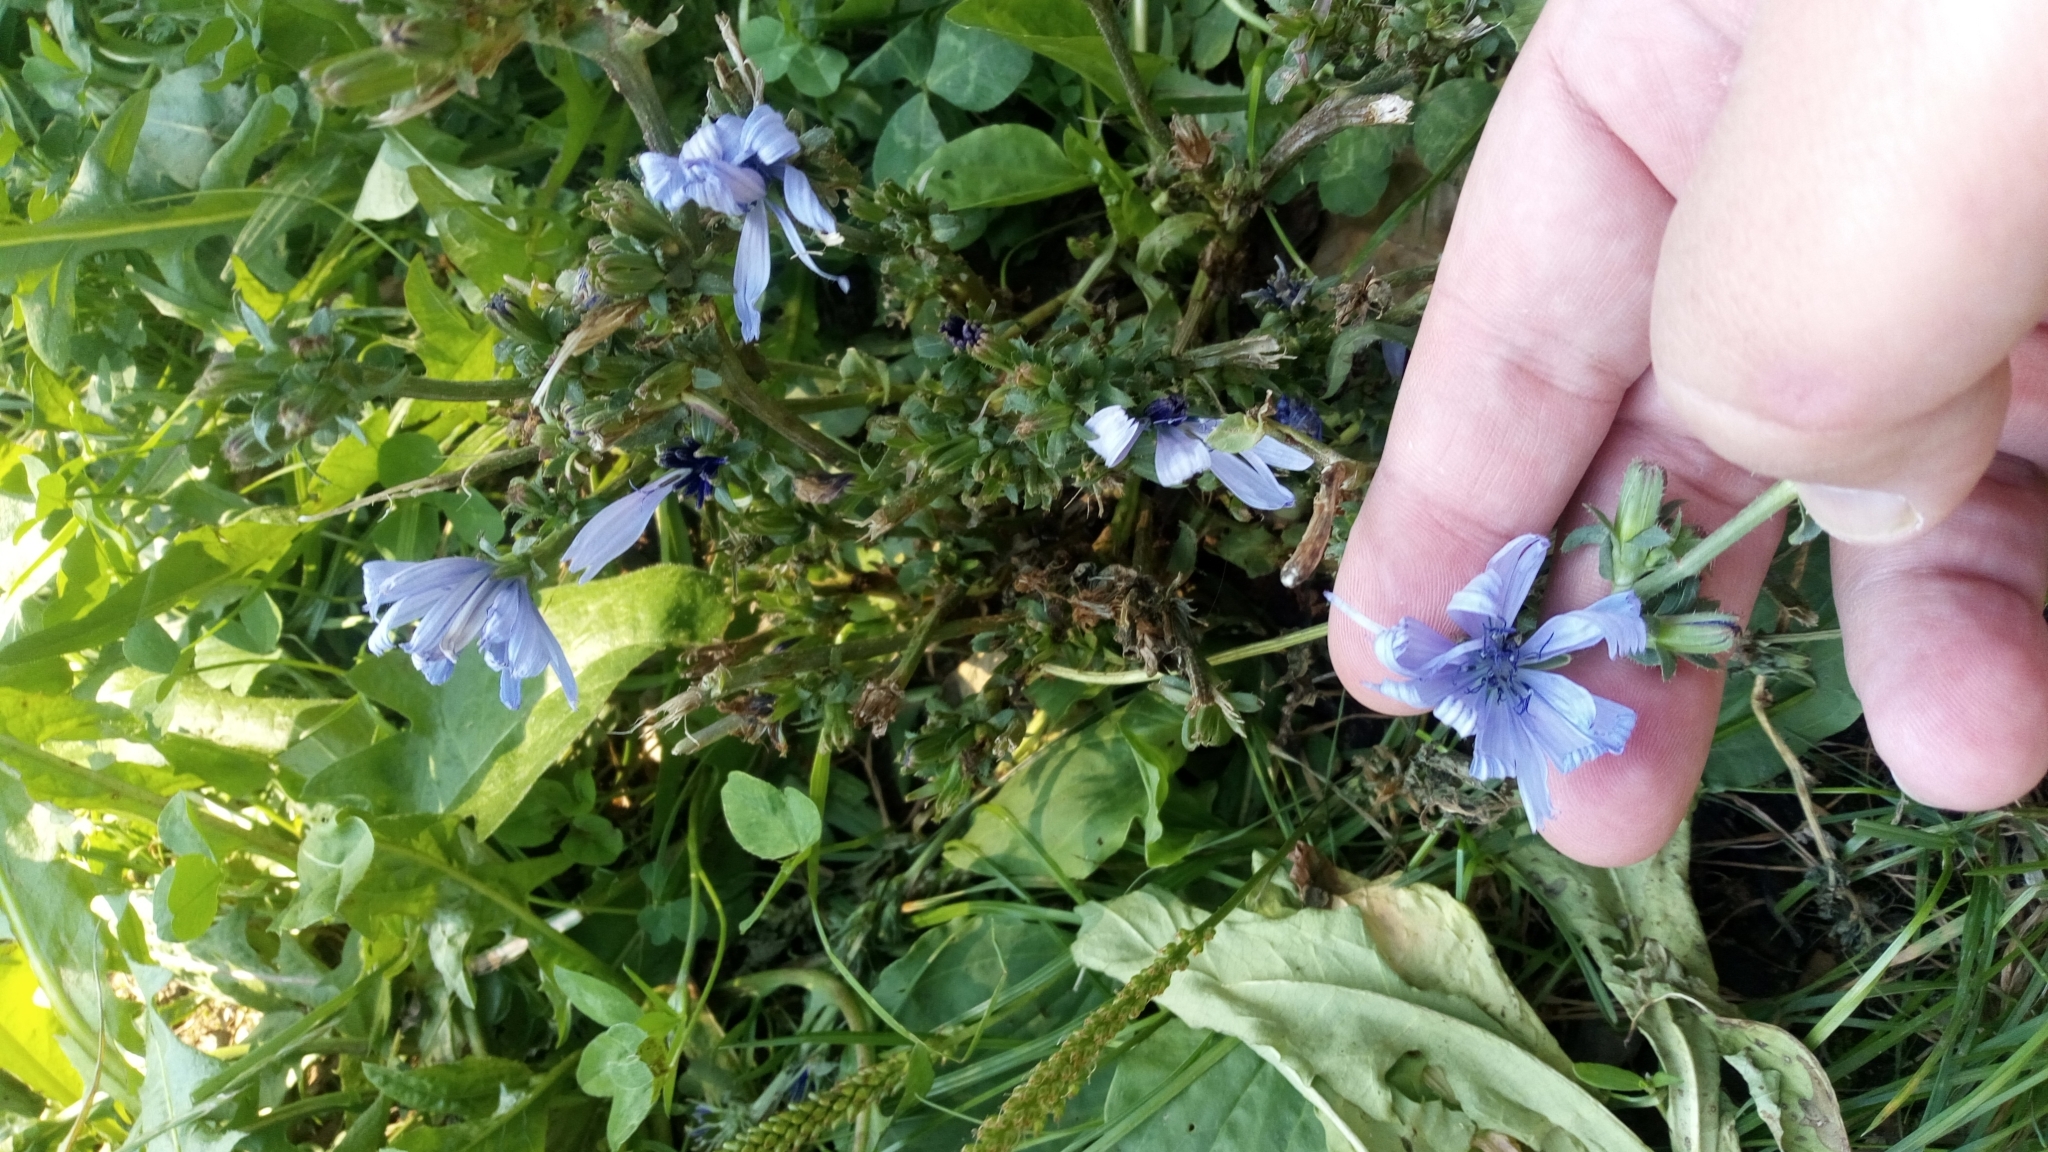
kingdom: Plantae
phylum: Tracheophyta
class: Magnoliopsida
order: Asterales
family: Asteraceae
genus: Cichorium
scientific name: Cichorium intybus
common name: Chicory
